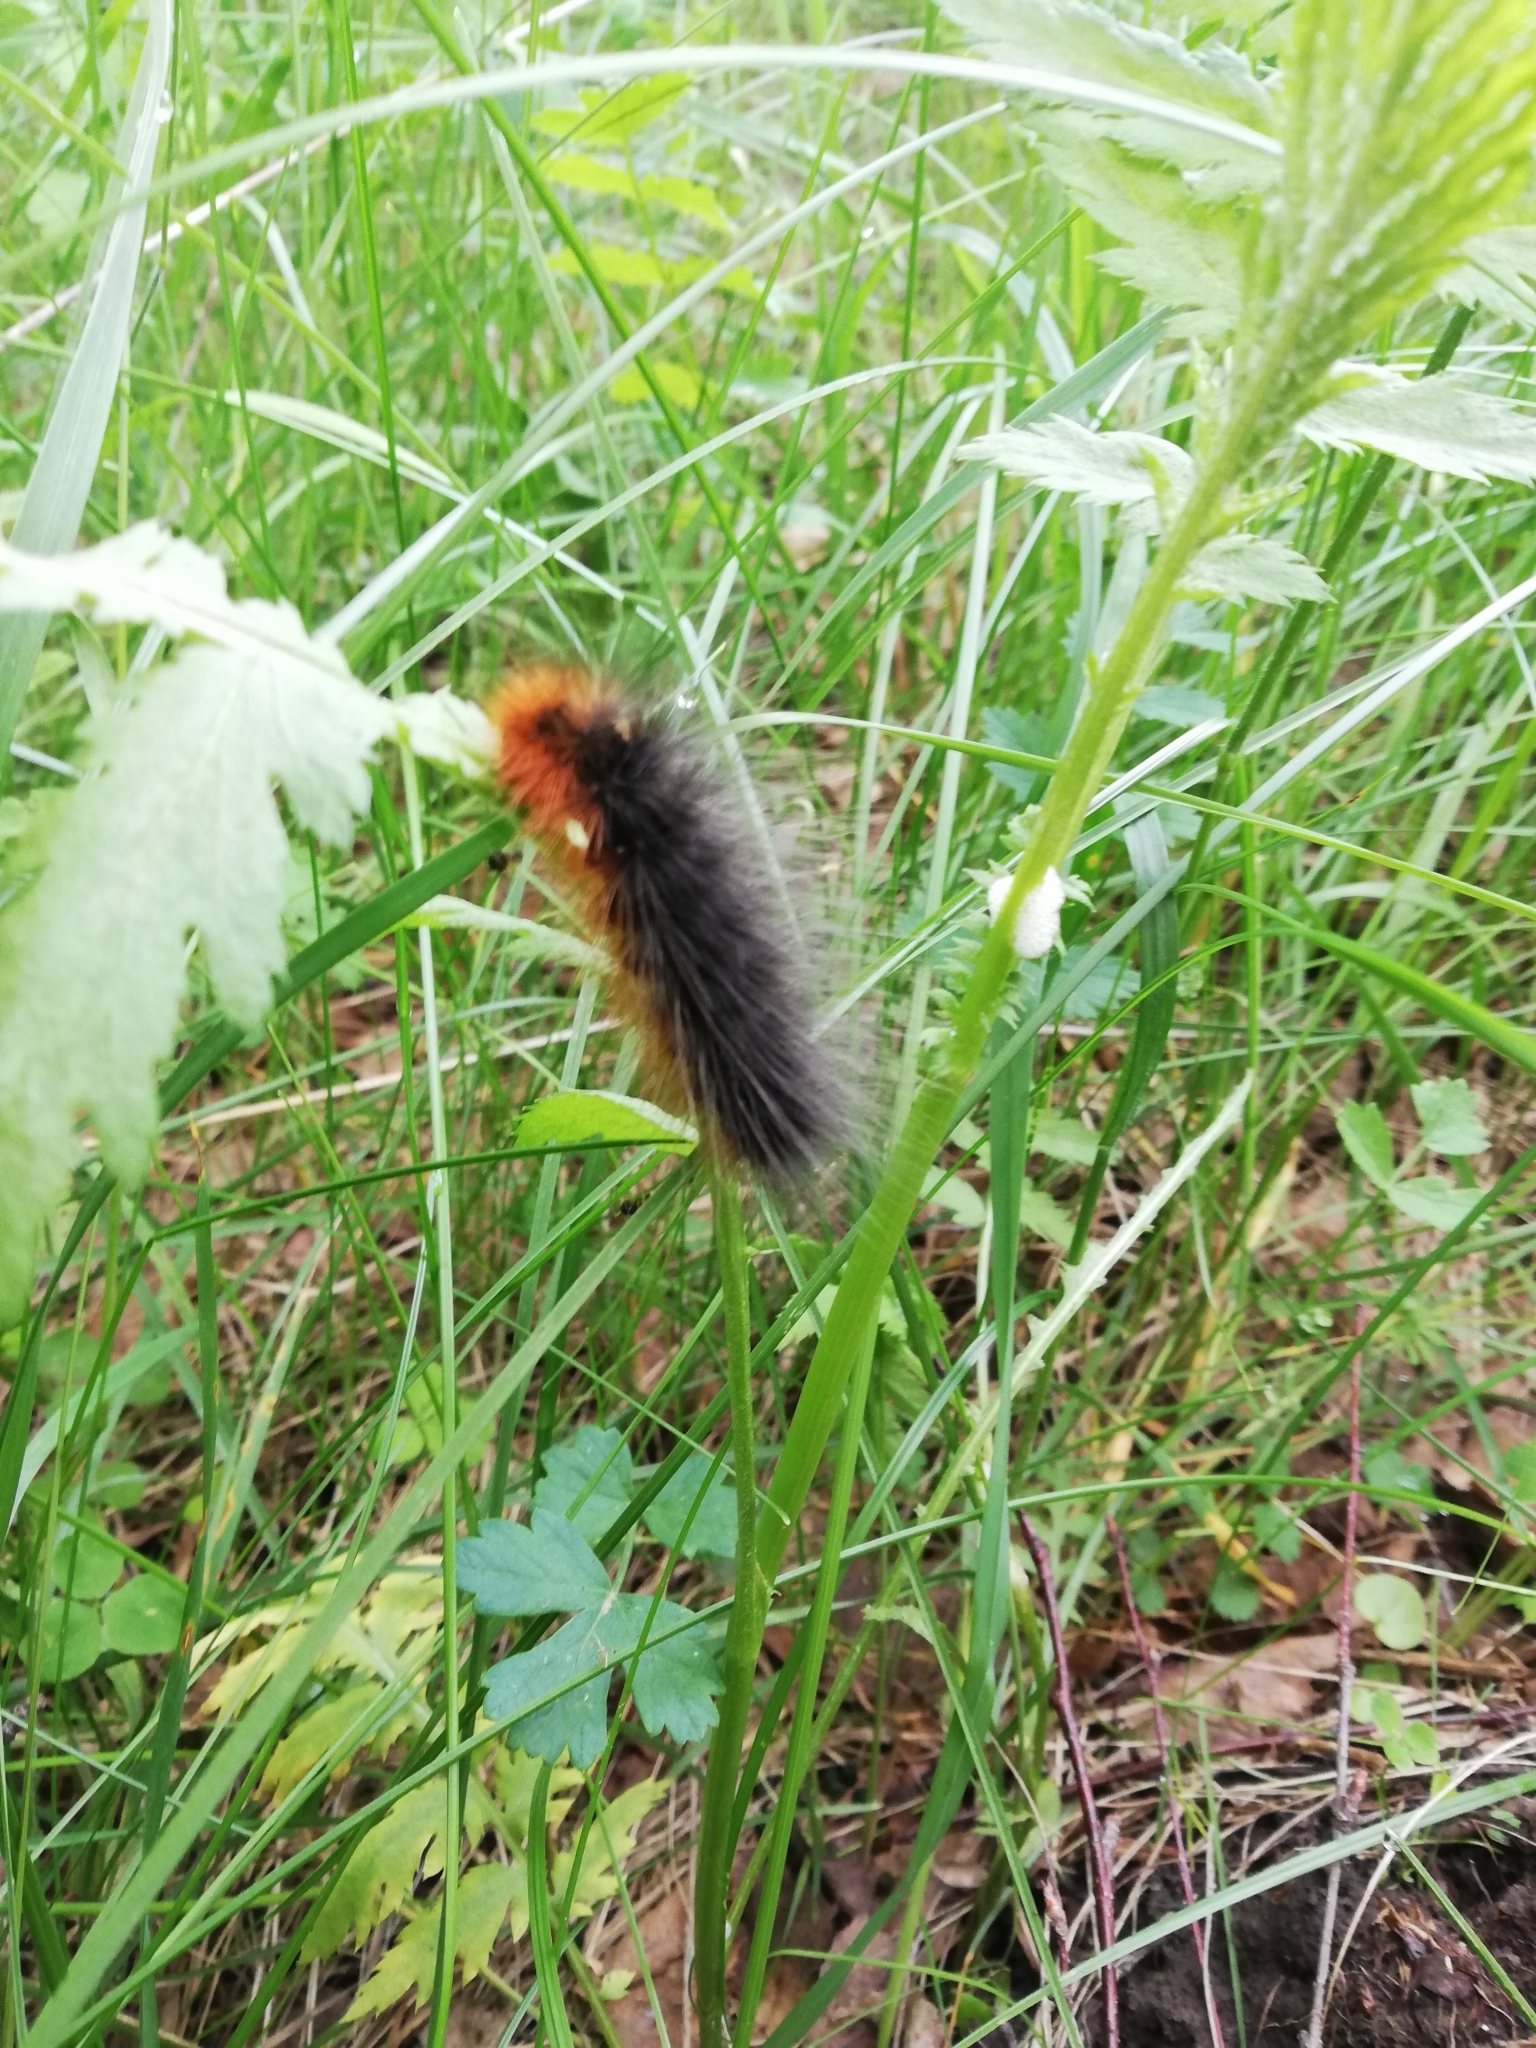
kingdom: Animalia
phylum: Arthropoda
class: Insecta
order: Lepidoptera
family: Erebidae
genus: Arctia
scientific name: Arctia caja
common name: Garden tiger
